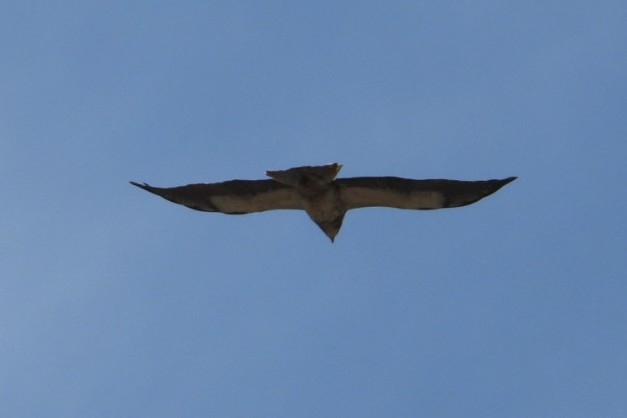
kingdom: Animalia
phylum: Chordata
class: Aves
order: Accipitriformes
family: Accipitridae
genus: Buteo
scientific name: Buteo swainsoni
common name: Swainson's hawk
